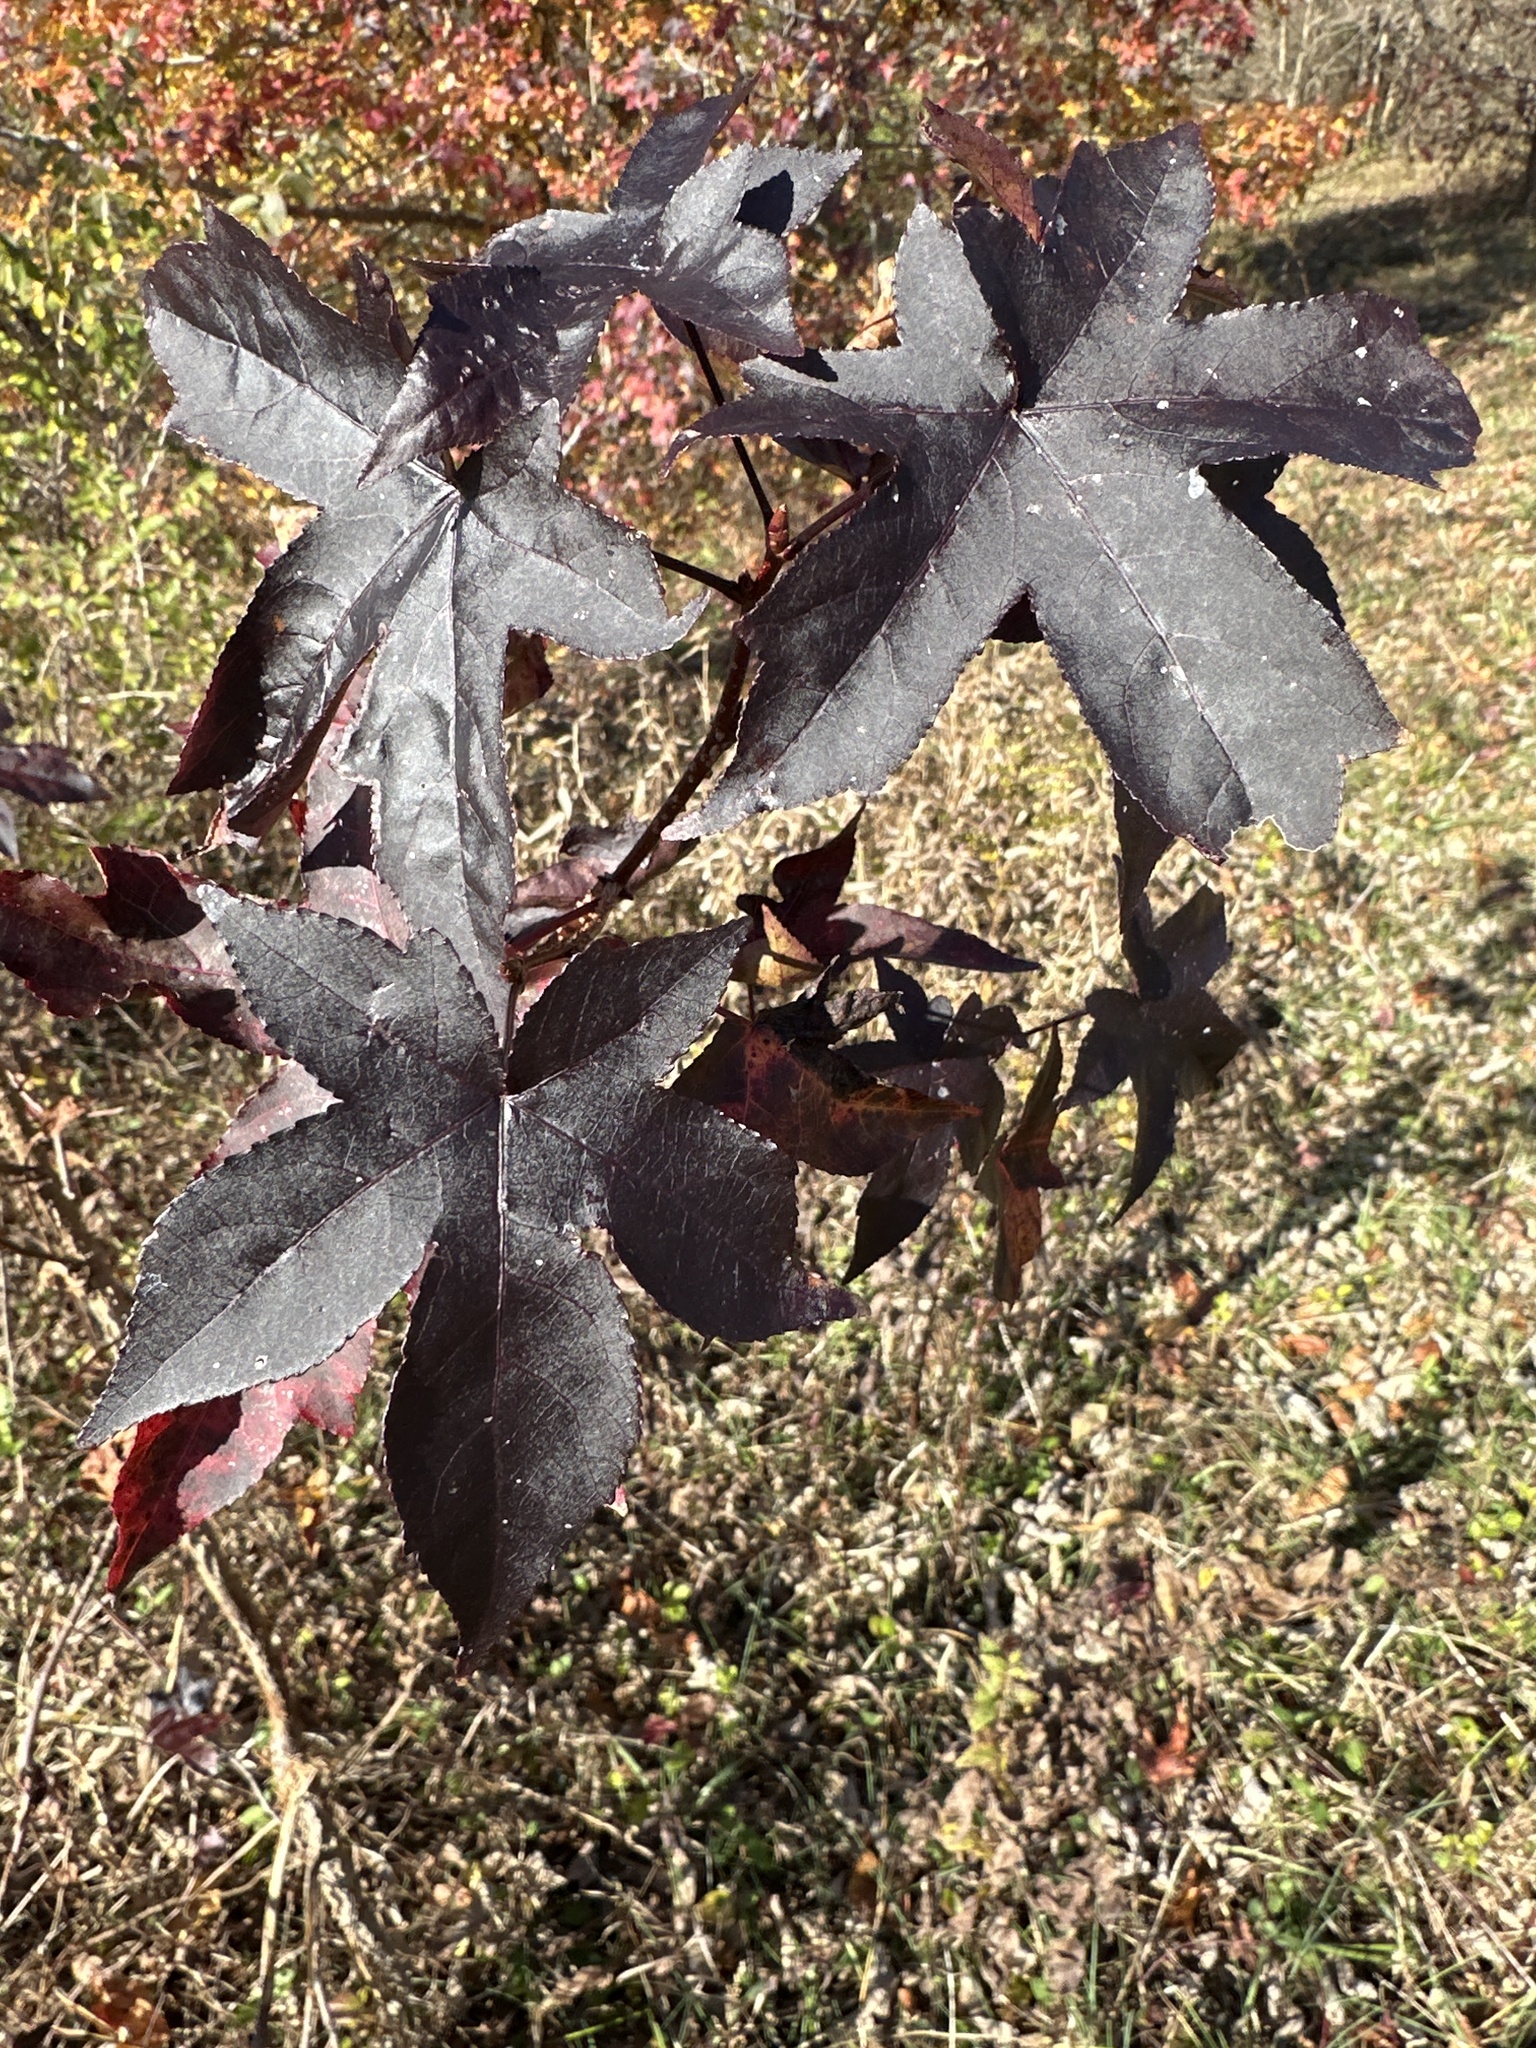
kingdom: Plantae
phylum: Tracheophyta
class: Magnoliopsida
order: Saxifragales
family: Altingiaceae
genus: Liquidambar
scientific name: Liquidambar styraciflua
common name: Sweet gum
